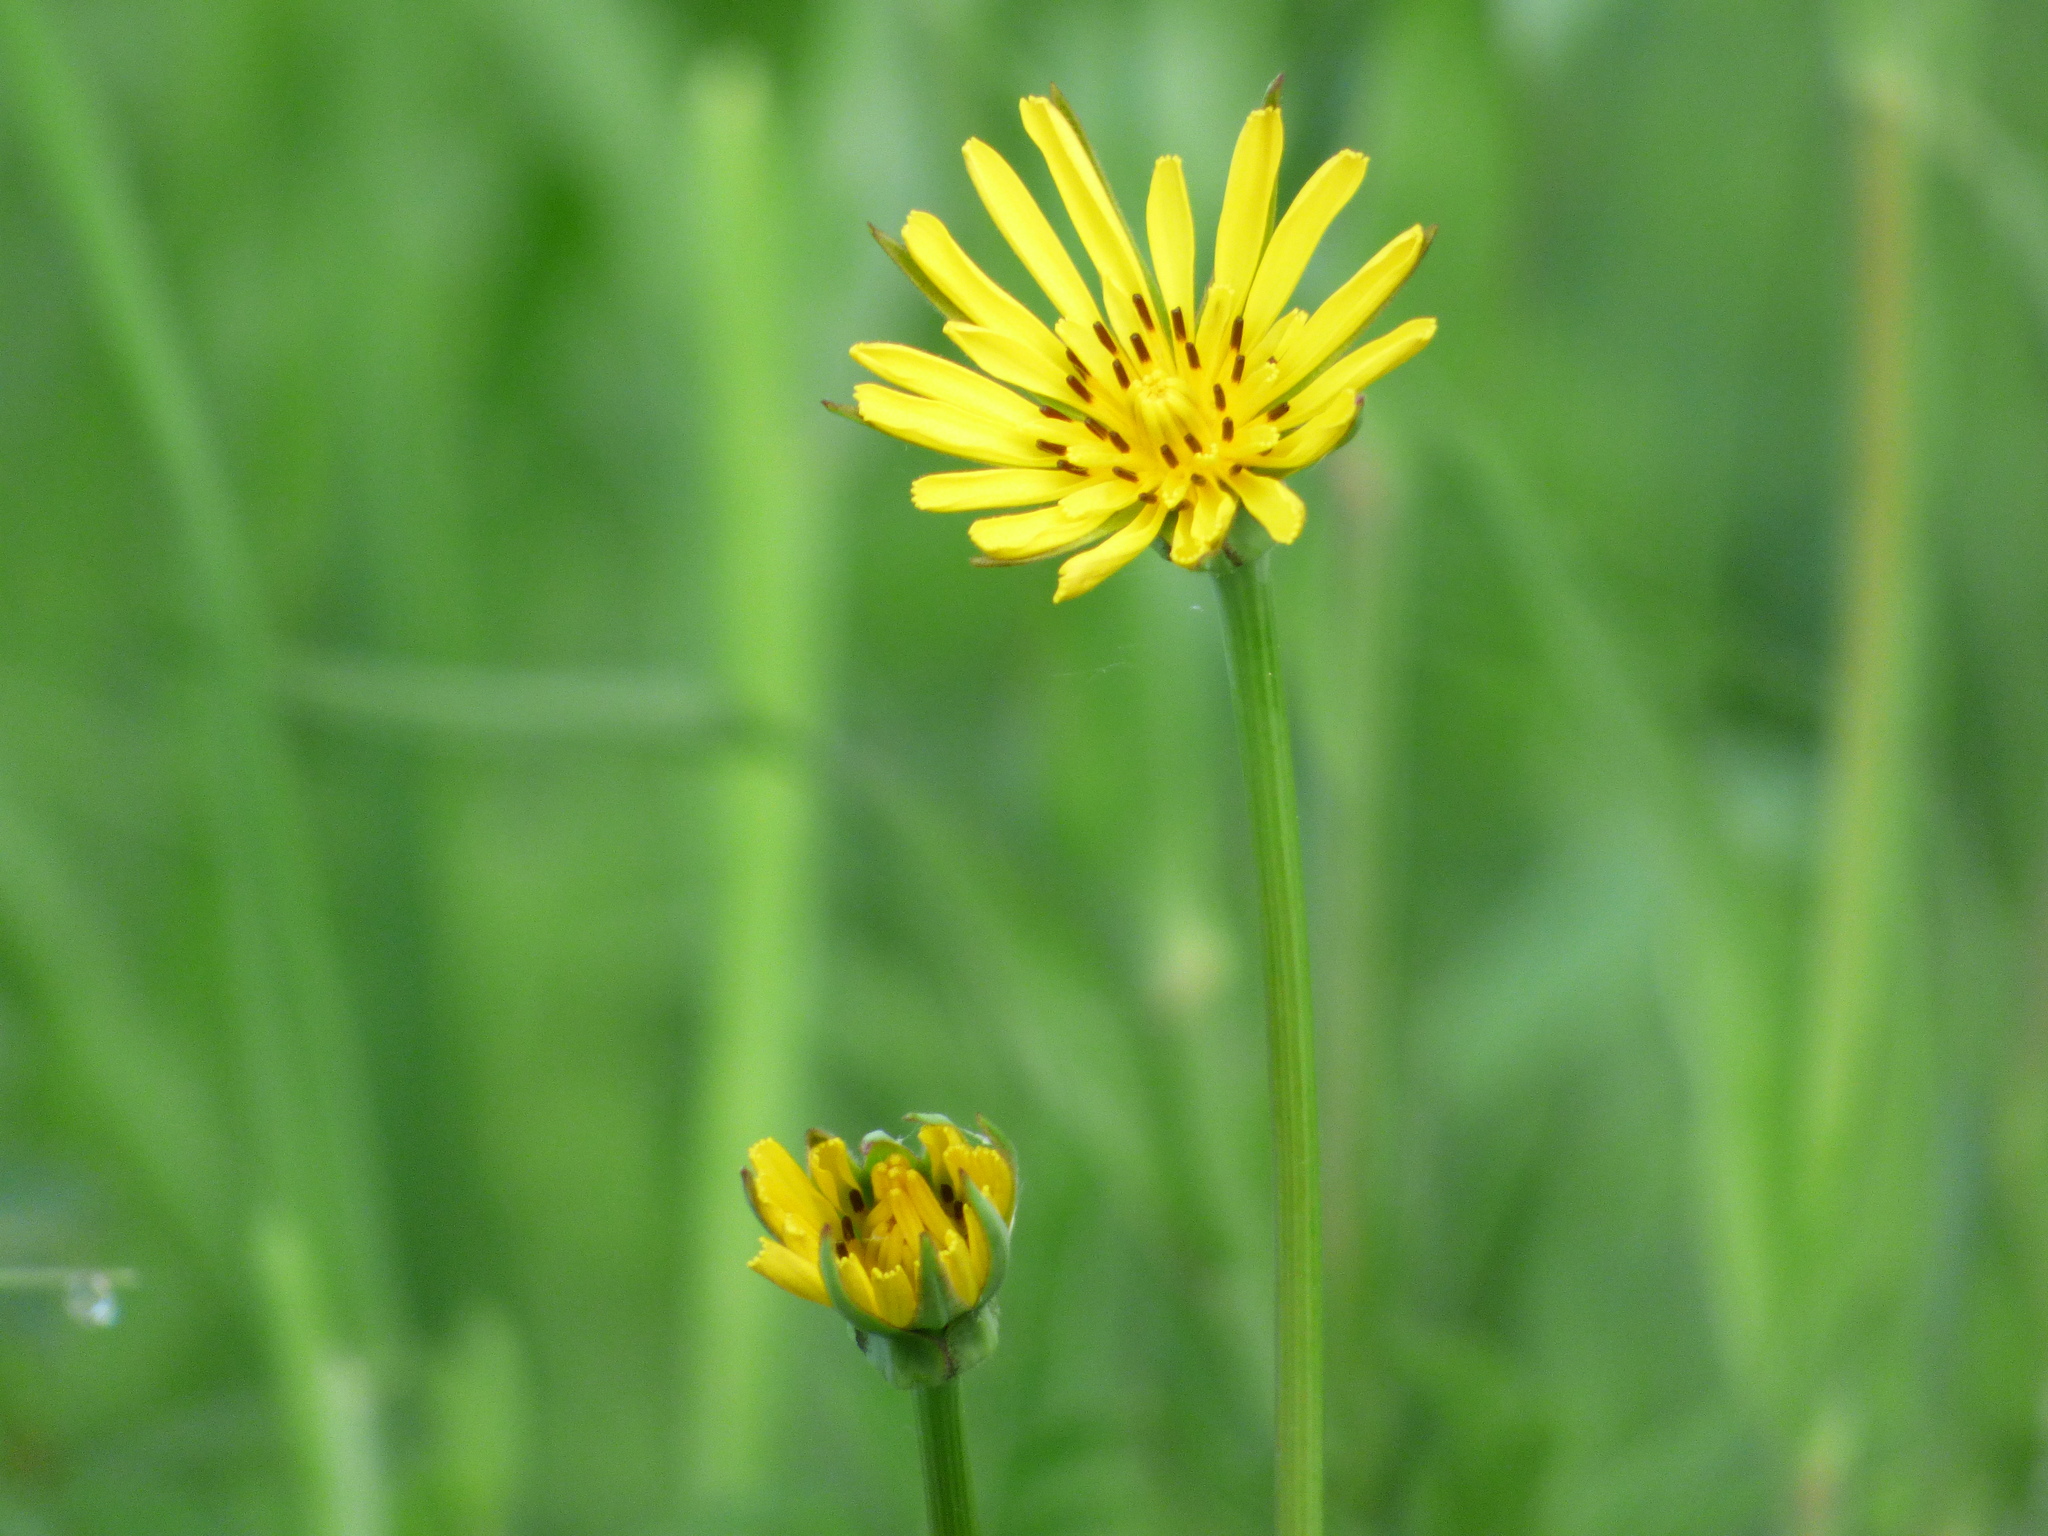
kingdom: Plantae
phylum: Tracheophyta
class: Magnoliopsida
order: Asterales
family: Asteraceae
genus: Tragopogon
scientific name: Tragopogon pratensis
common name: Goat's-beard
